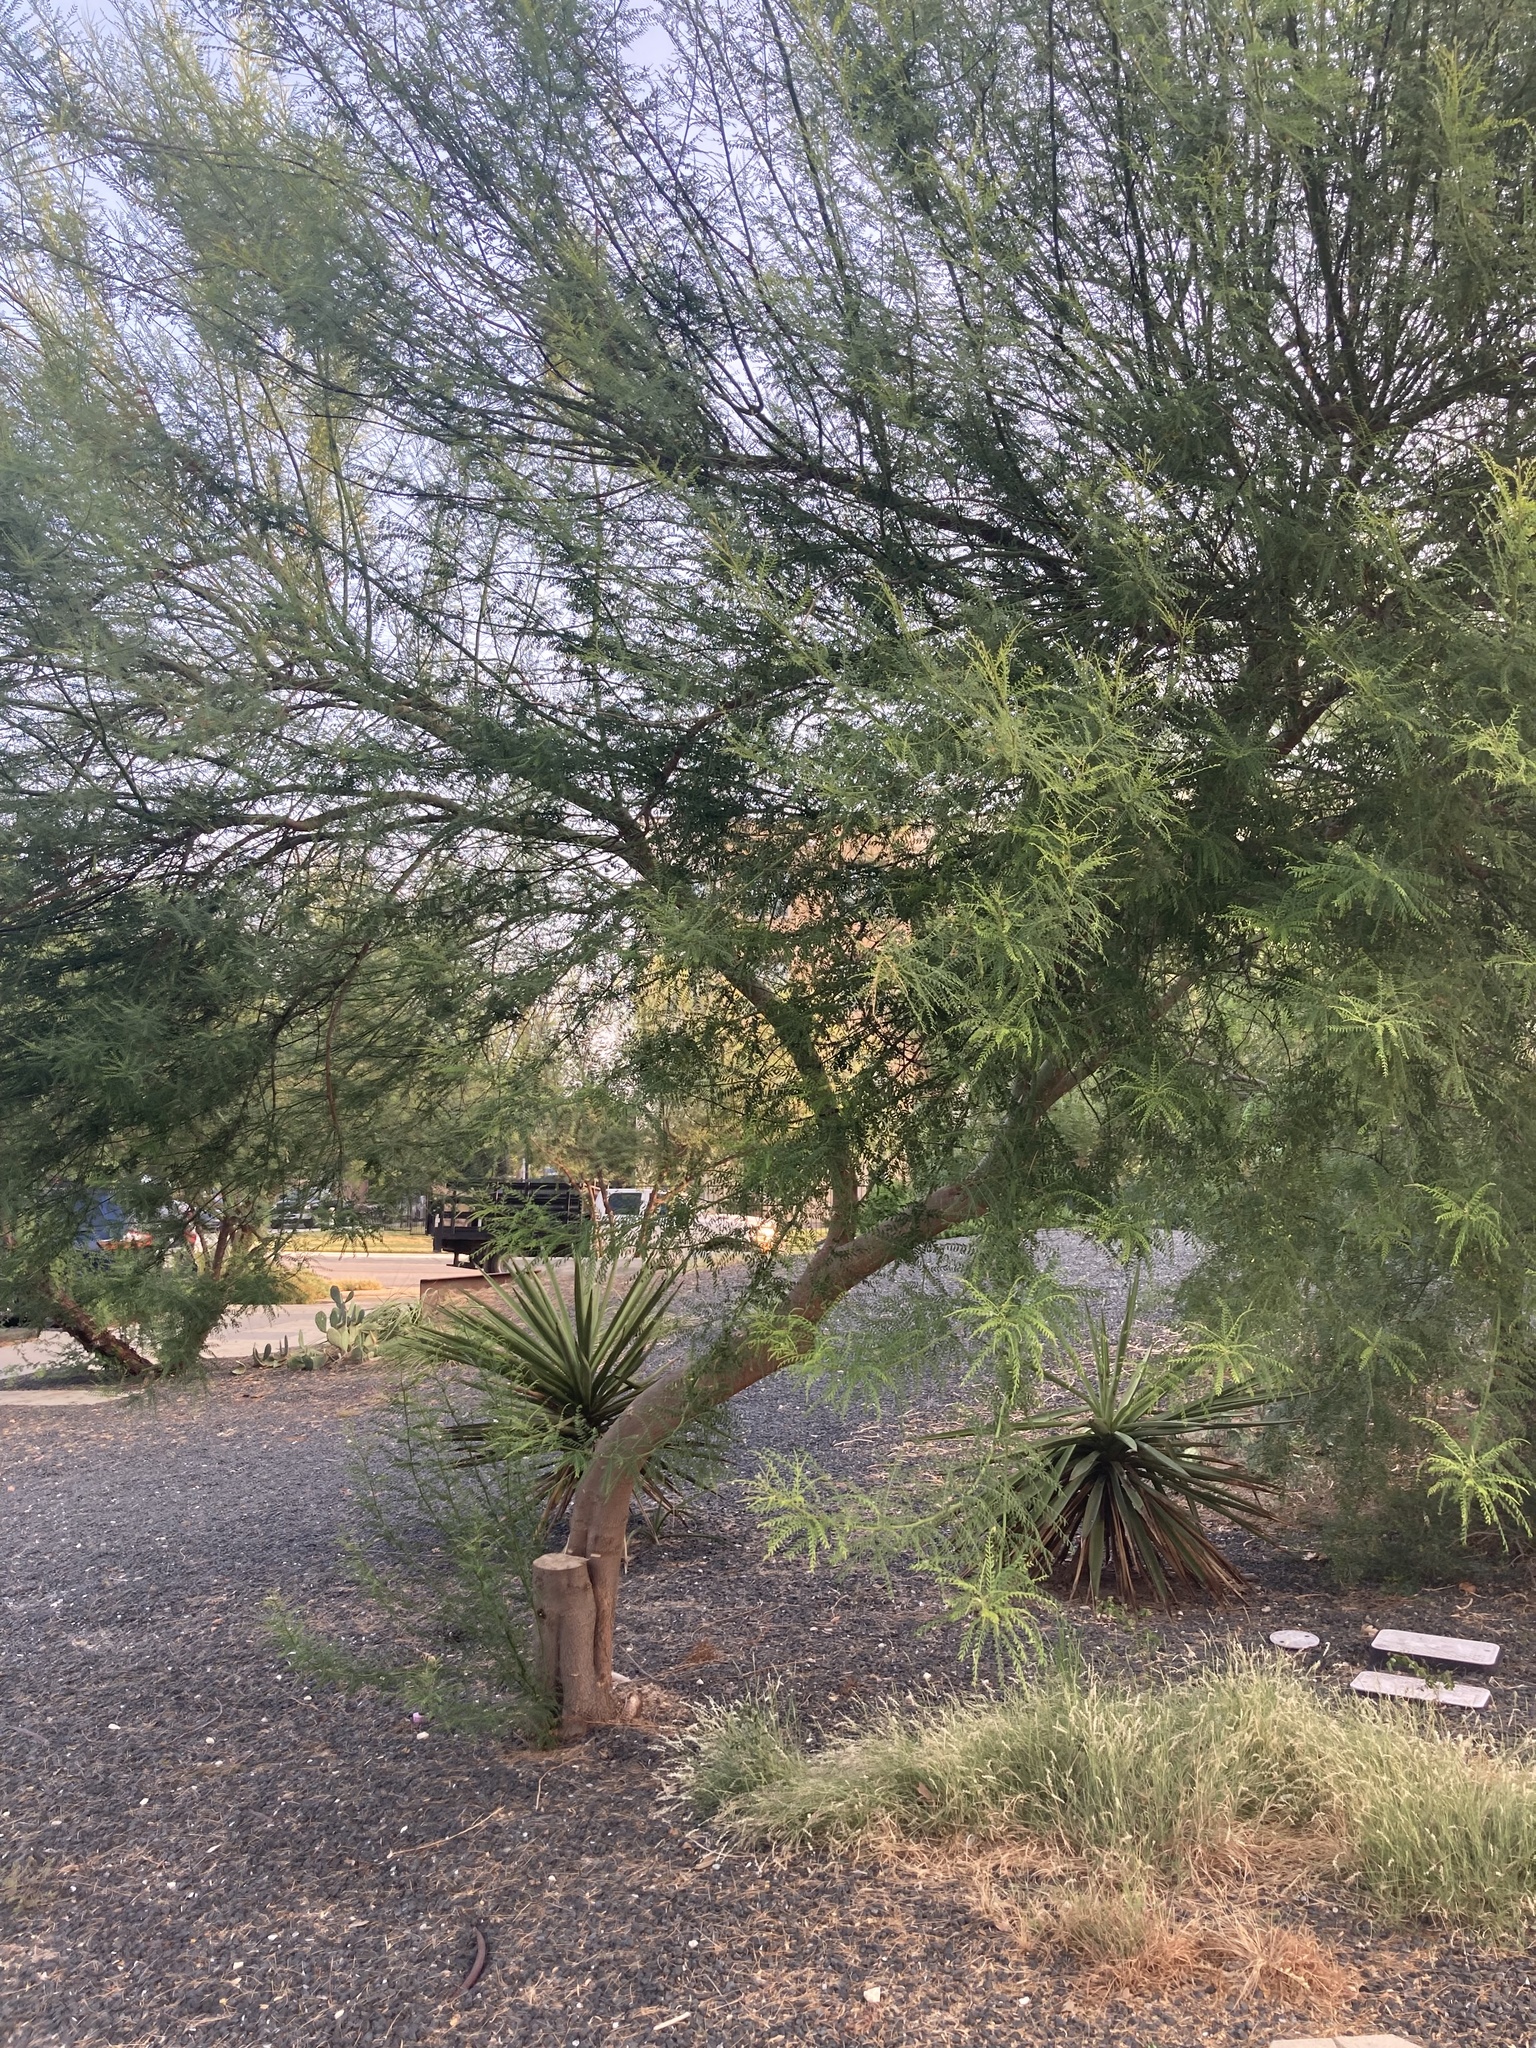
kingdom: Plantae
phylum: Tracheophyta
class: Magnoliopsida
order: Fabales
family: Fabaceae
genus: Parkinsonia
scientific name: Parkinsonia aculeata
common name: Jerusalem thorn
